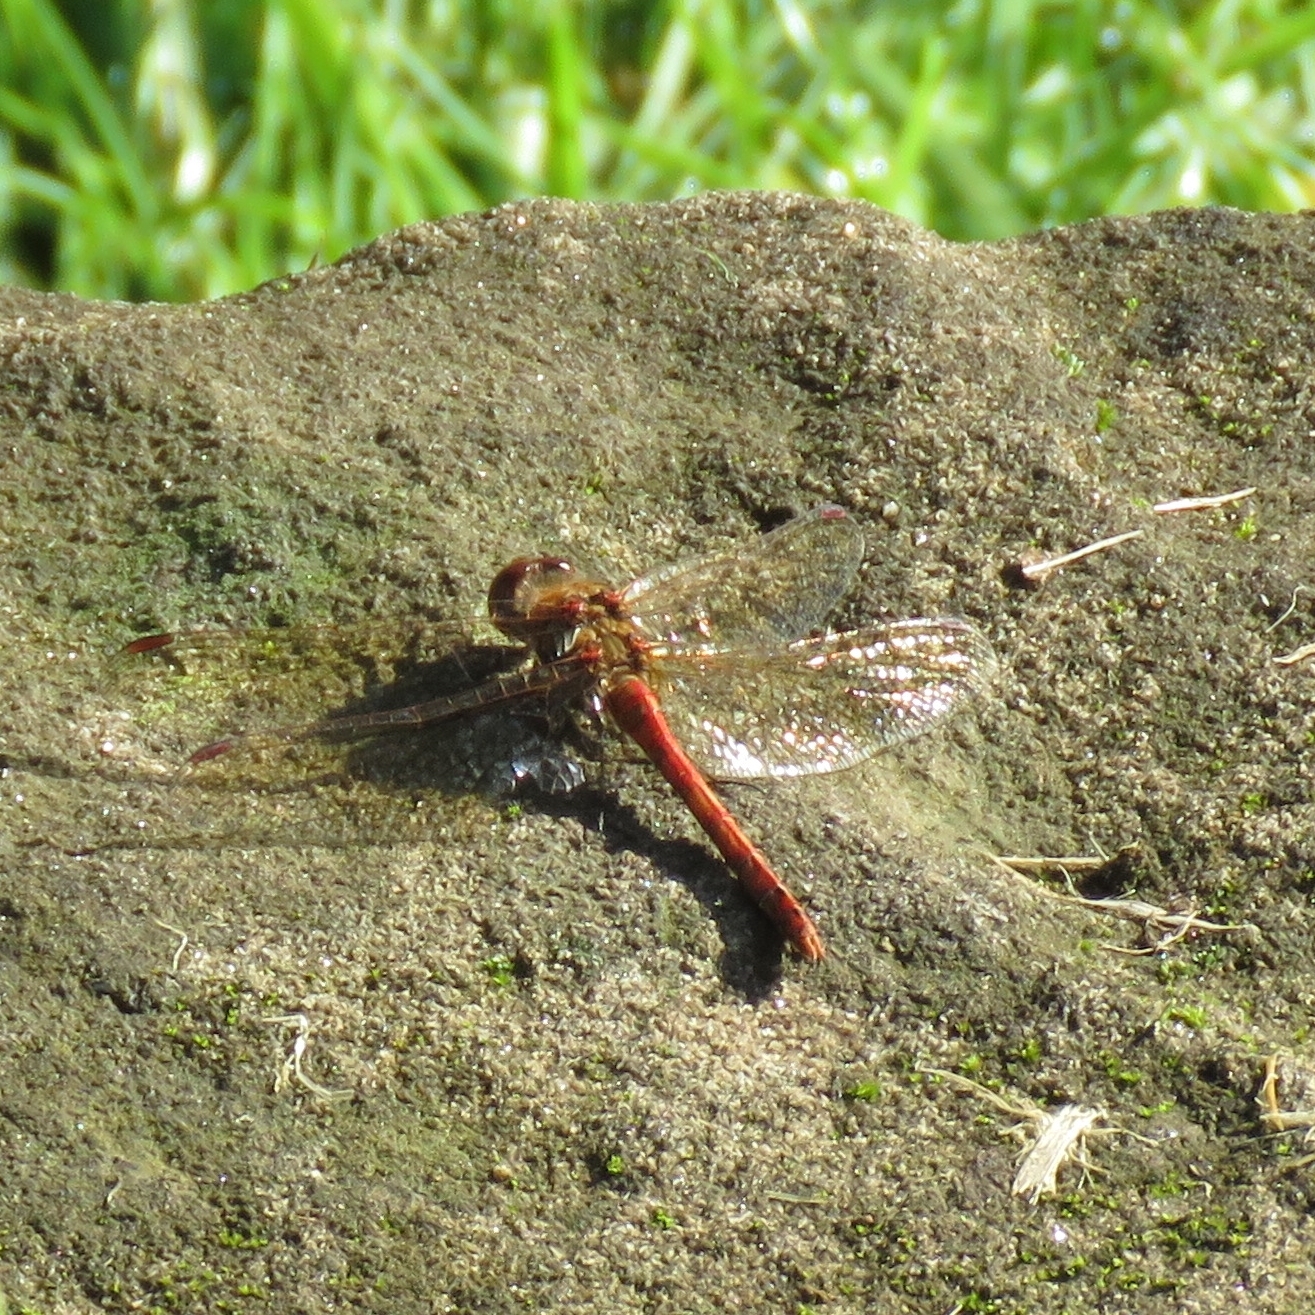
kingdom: Animalia
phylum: Arthropoda
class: Insecta
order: Odonata
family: Libellulidae
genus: Sympetrum
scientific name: Sympetrum striolatum
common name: Common darter
